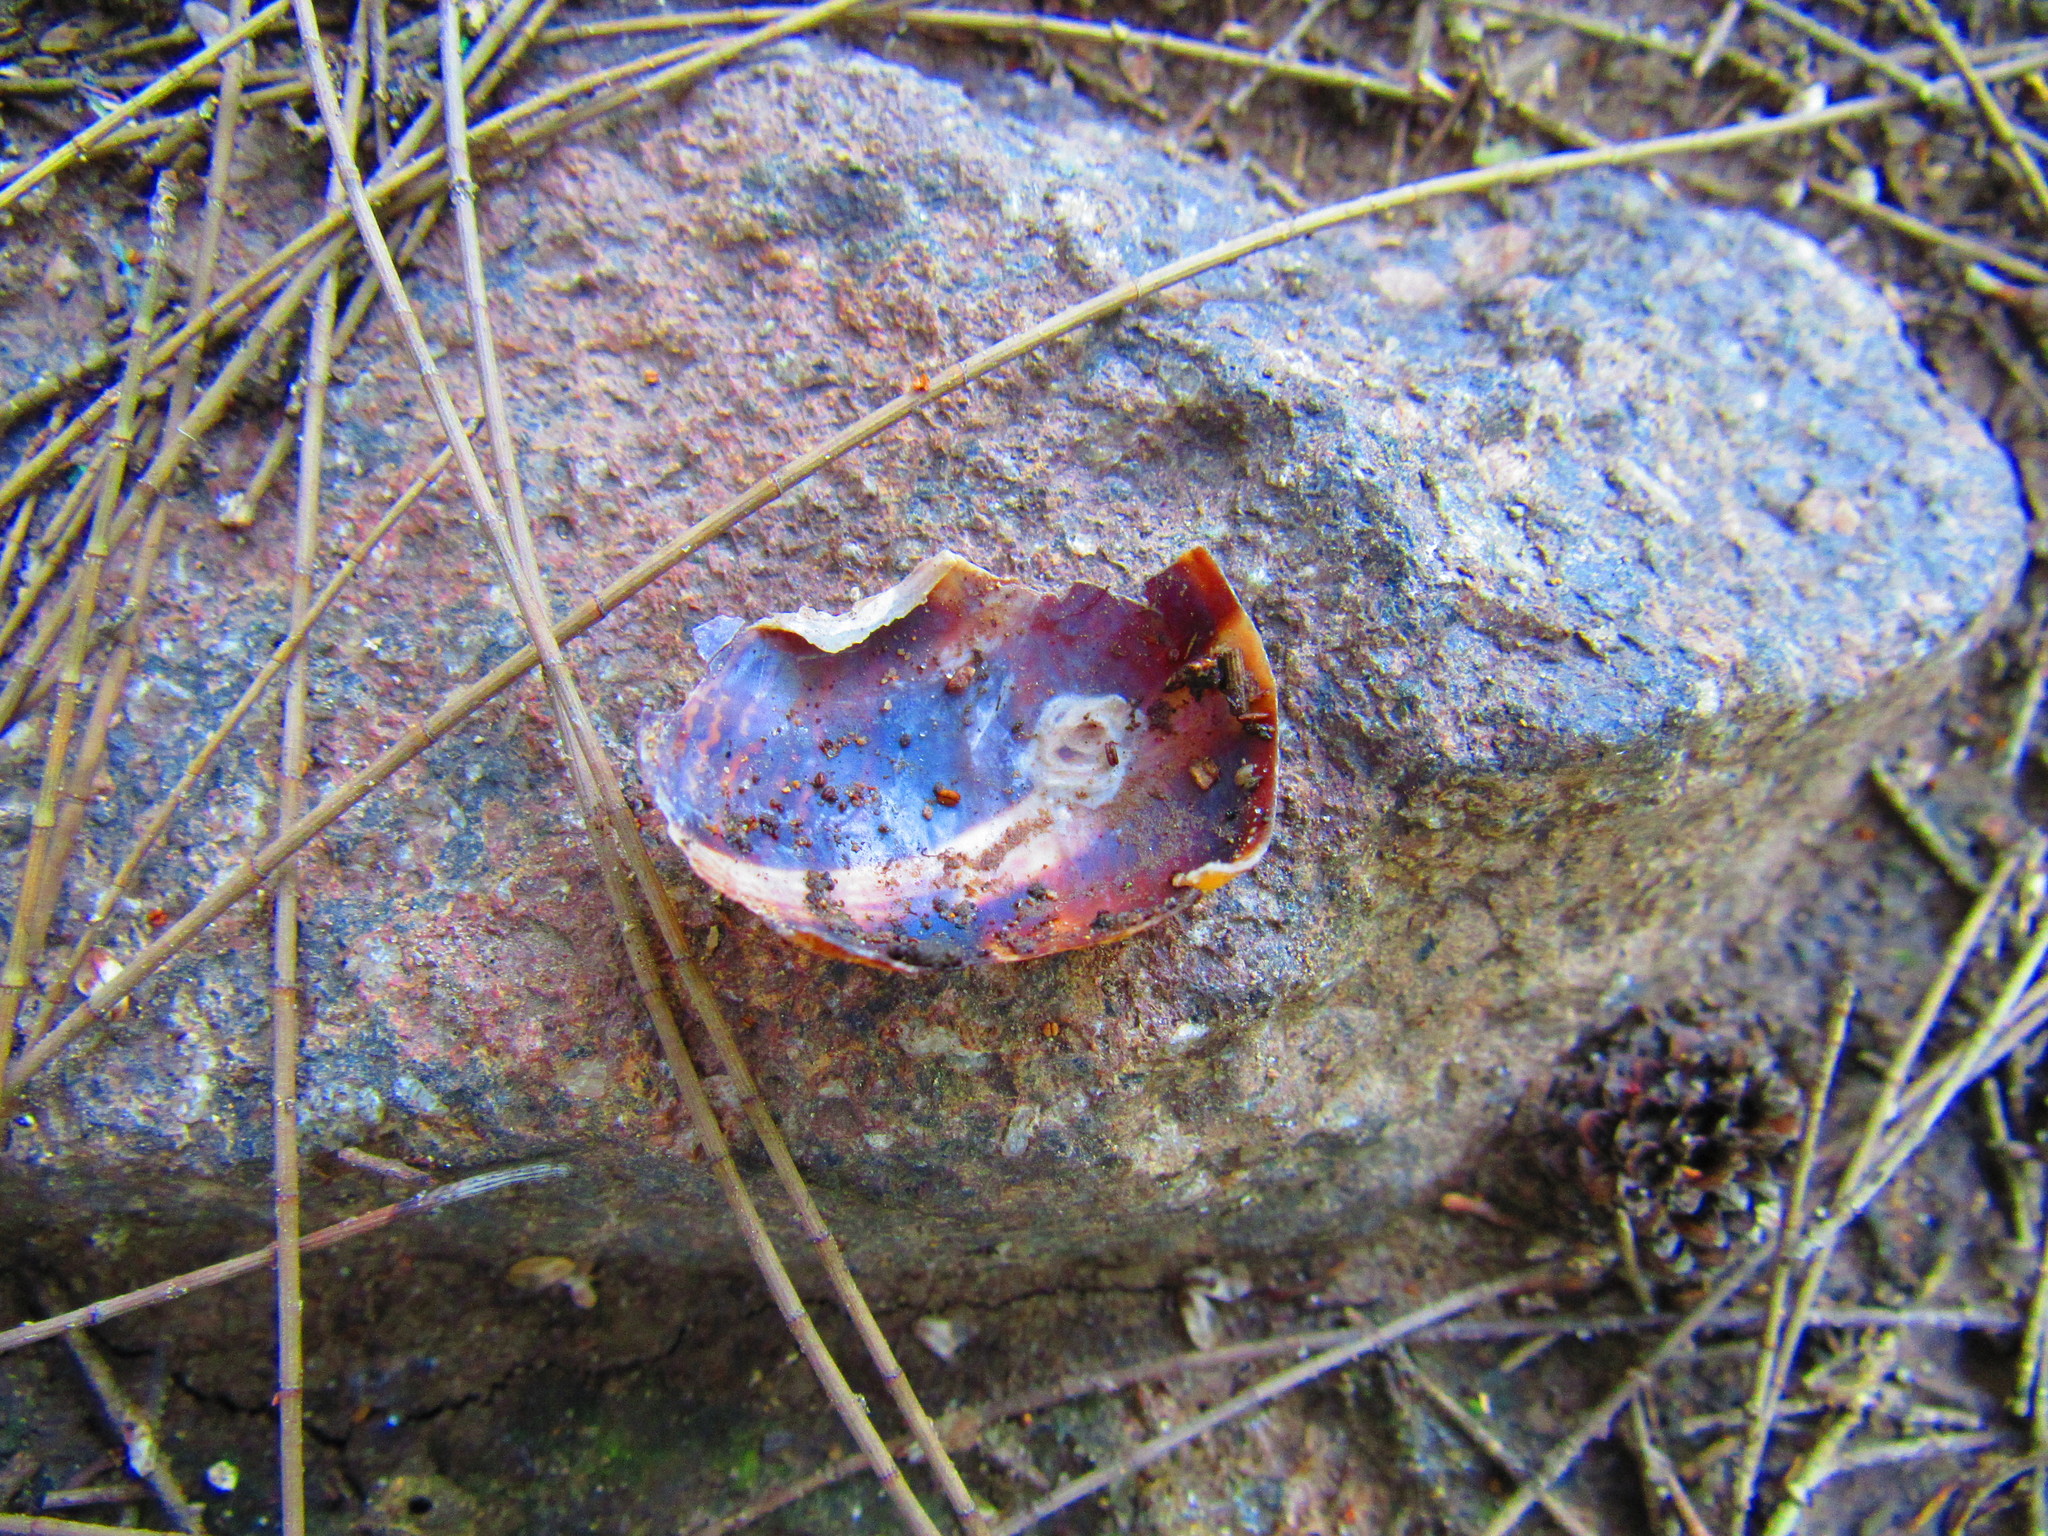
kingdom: Animalia
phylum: Mollusca
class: Gastropoda
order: Stylommatophora
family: Helicidae
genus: Cornu
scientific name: Cornu aspersum
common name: Brown garden snail
